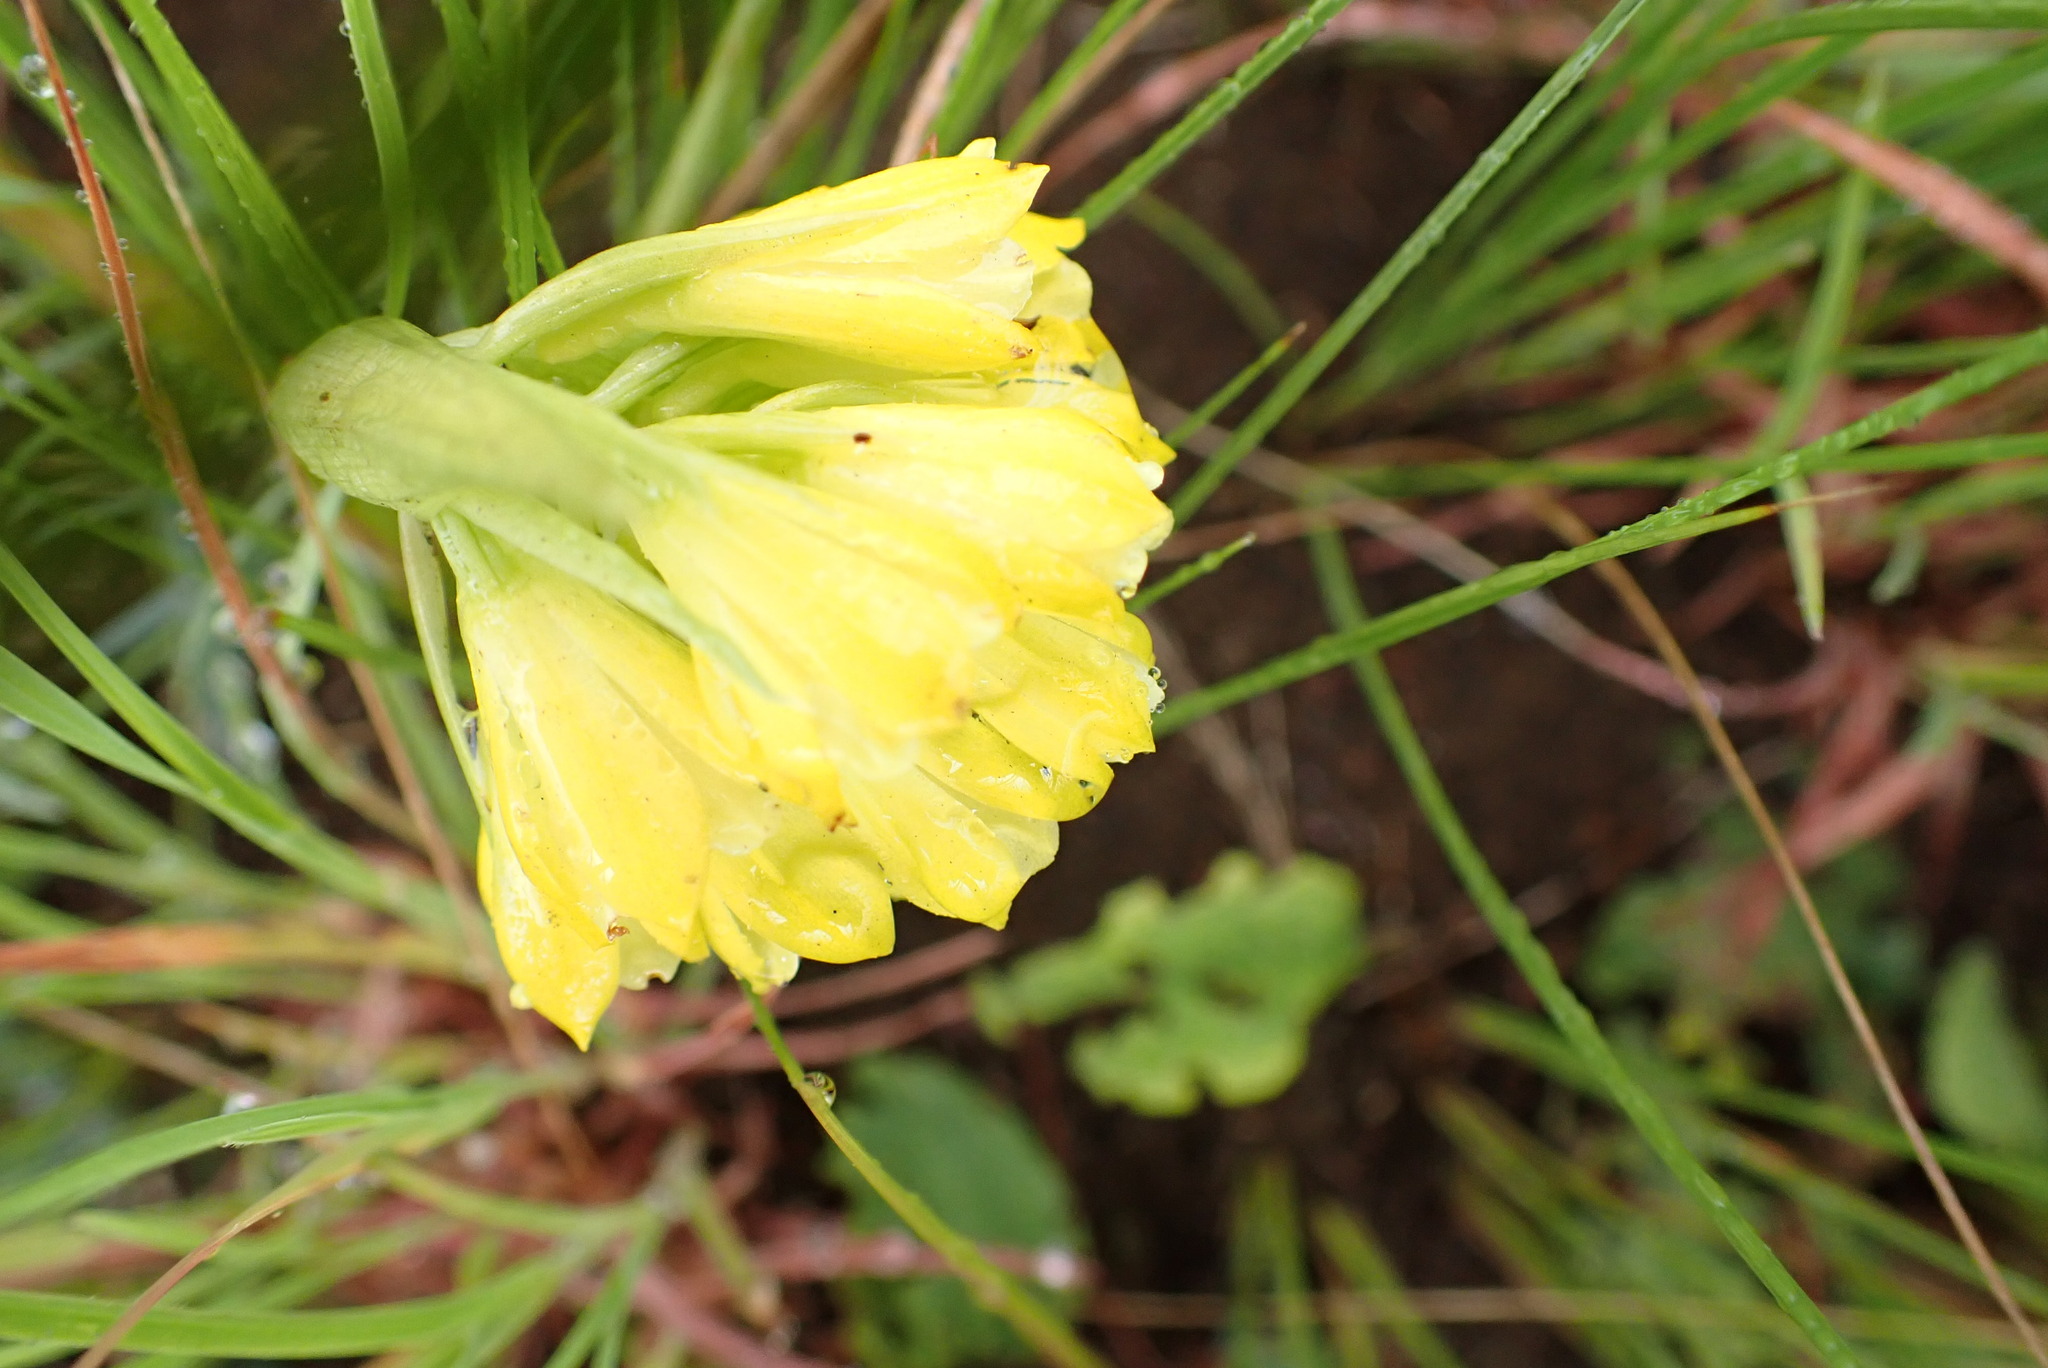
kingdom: Plantae
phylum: Tracheophyta
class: Liliopsida
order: Asparagales
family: Orchidaceae
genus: Eulophia
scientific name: Eulophia leontoglossa
